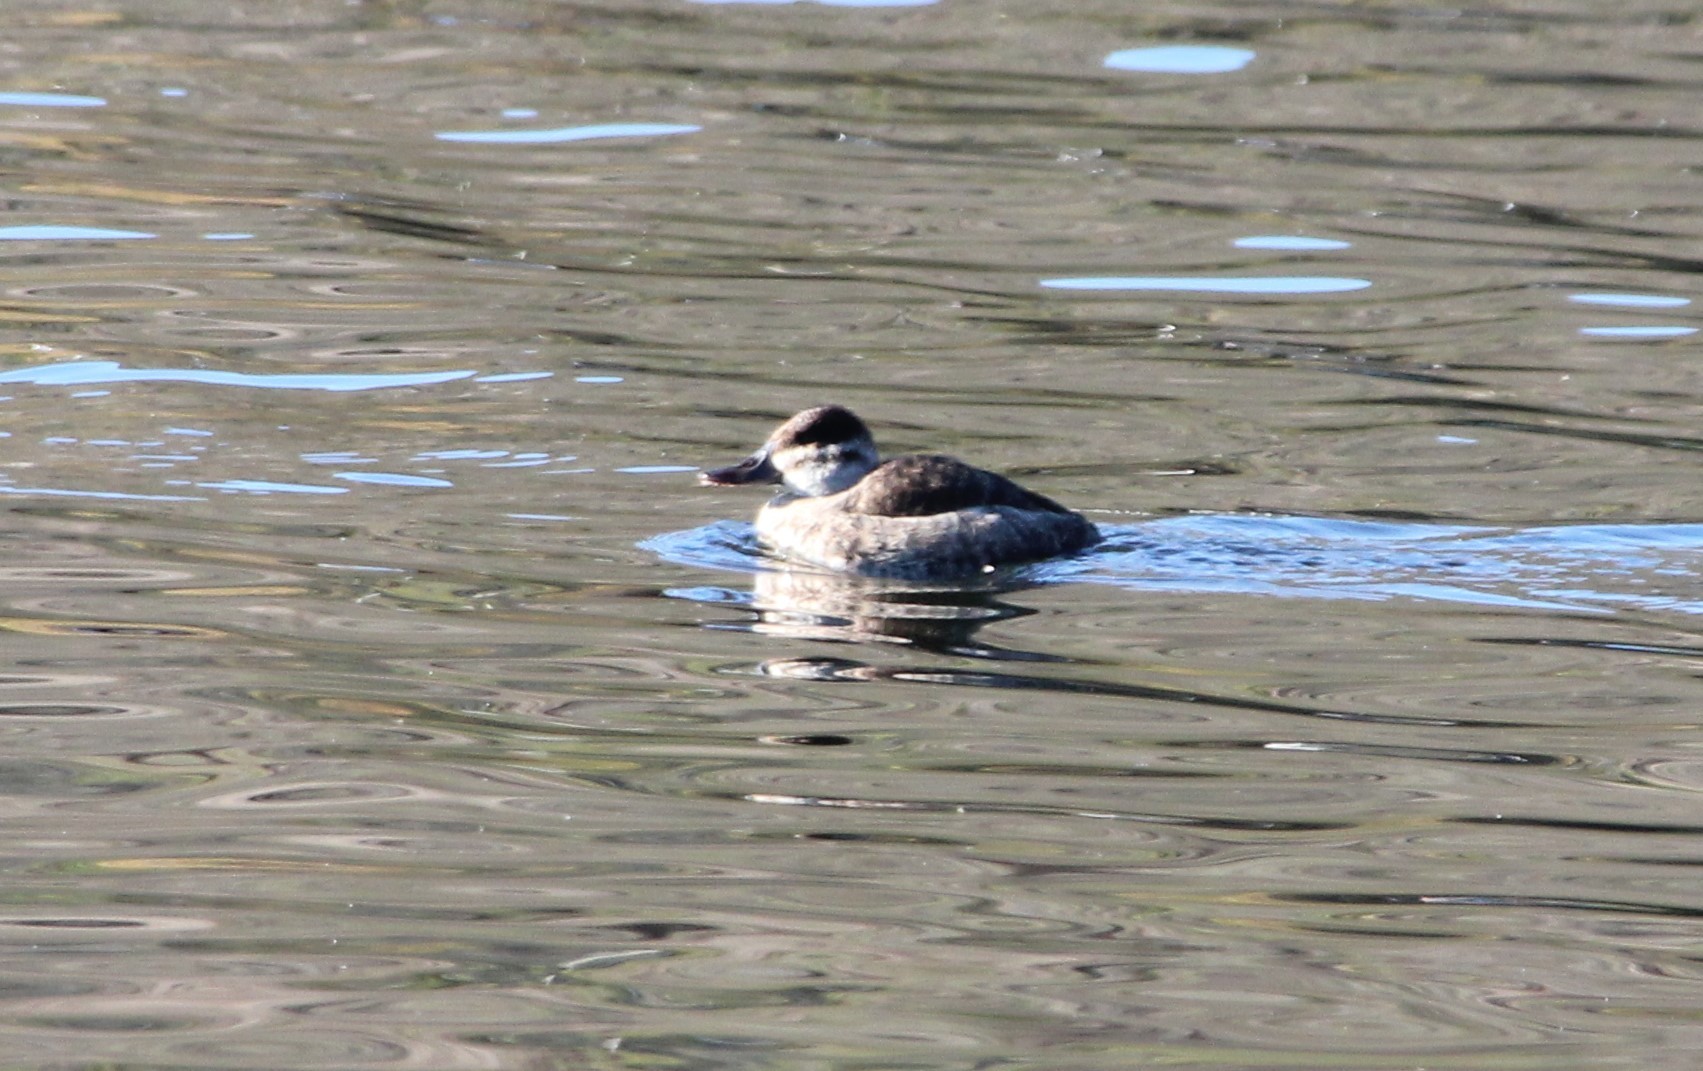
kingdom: Animalia
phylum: Chordata
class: Aves
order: Anseriformes
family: Anatidae
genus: Oxyura
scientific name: Oxyura jamaicensis
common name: Ruddy duck
